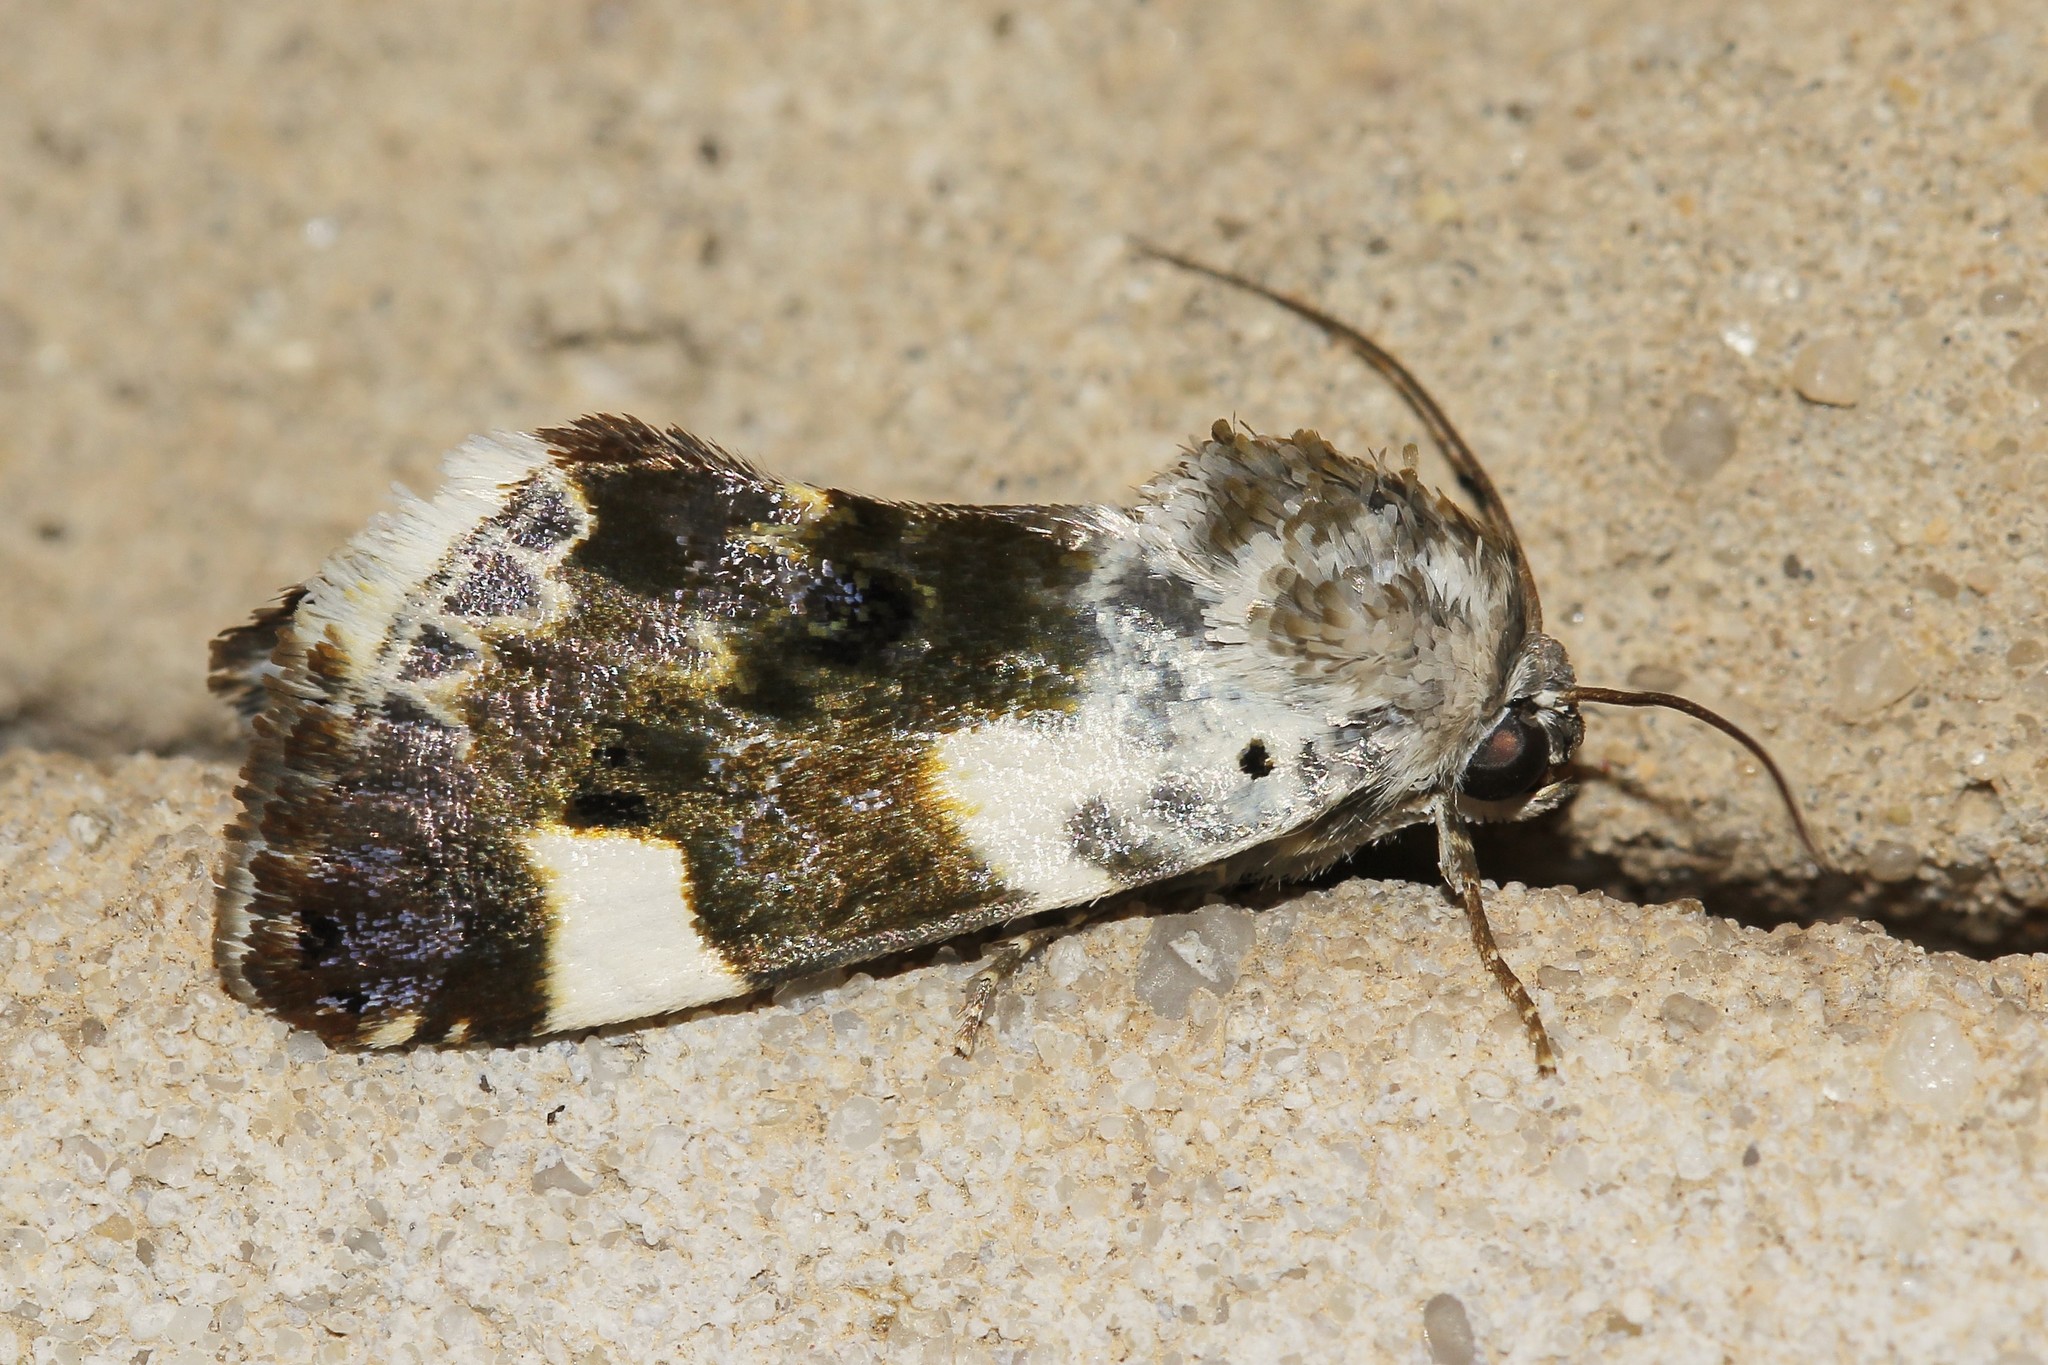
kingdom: Animalia
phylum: Arthropoda
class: Insecta
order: Lepidoptera
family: Noctuidae
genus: Acontia
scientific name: Acontia lucida
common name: Pale shoulder
